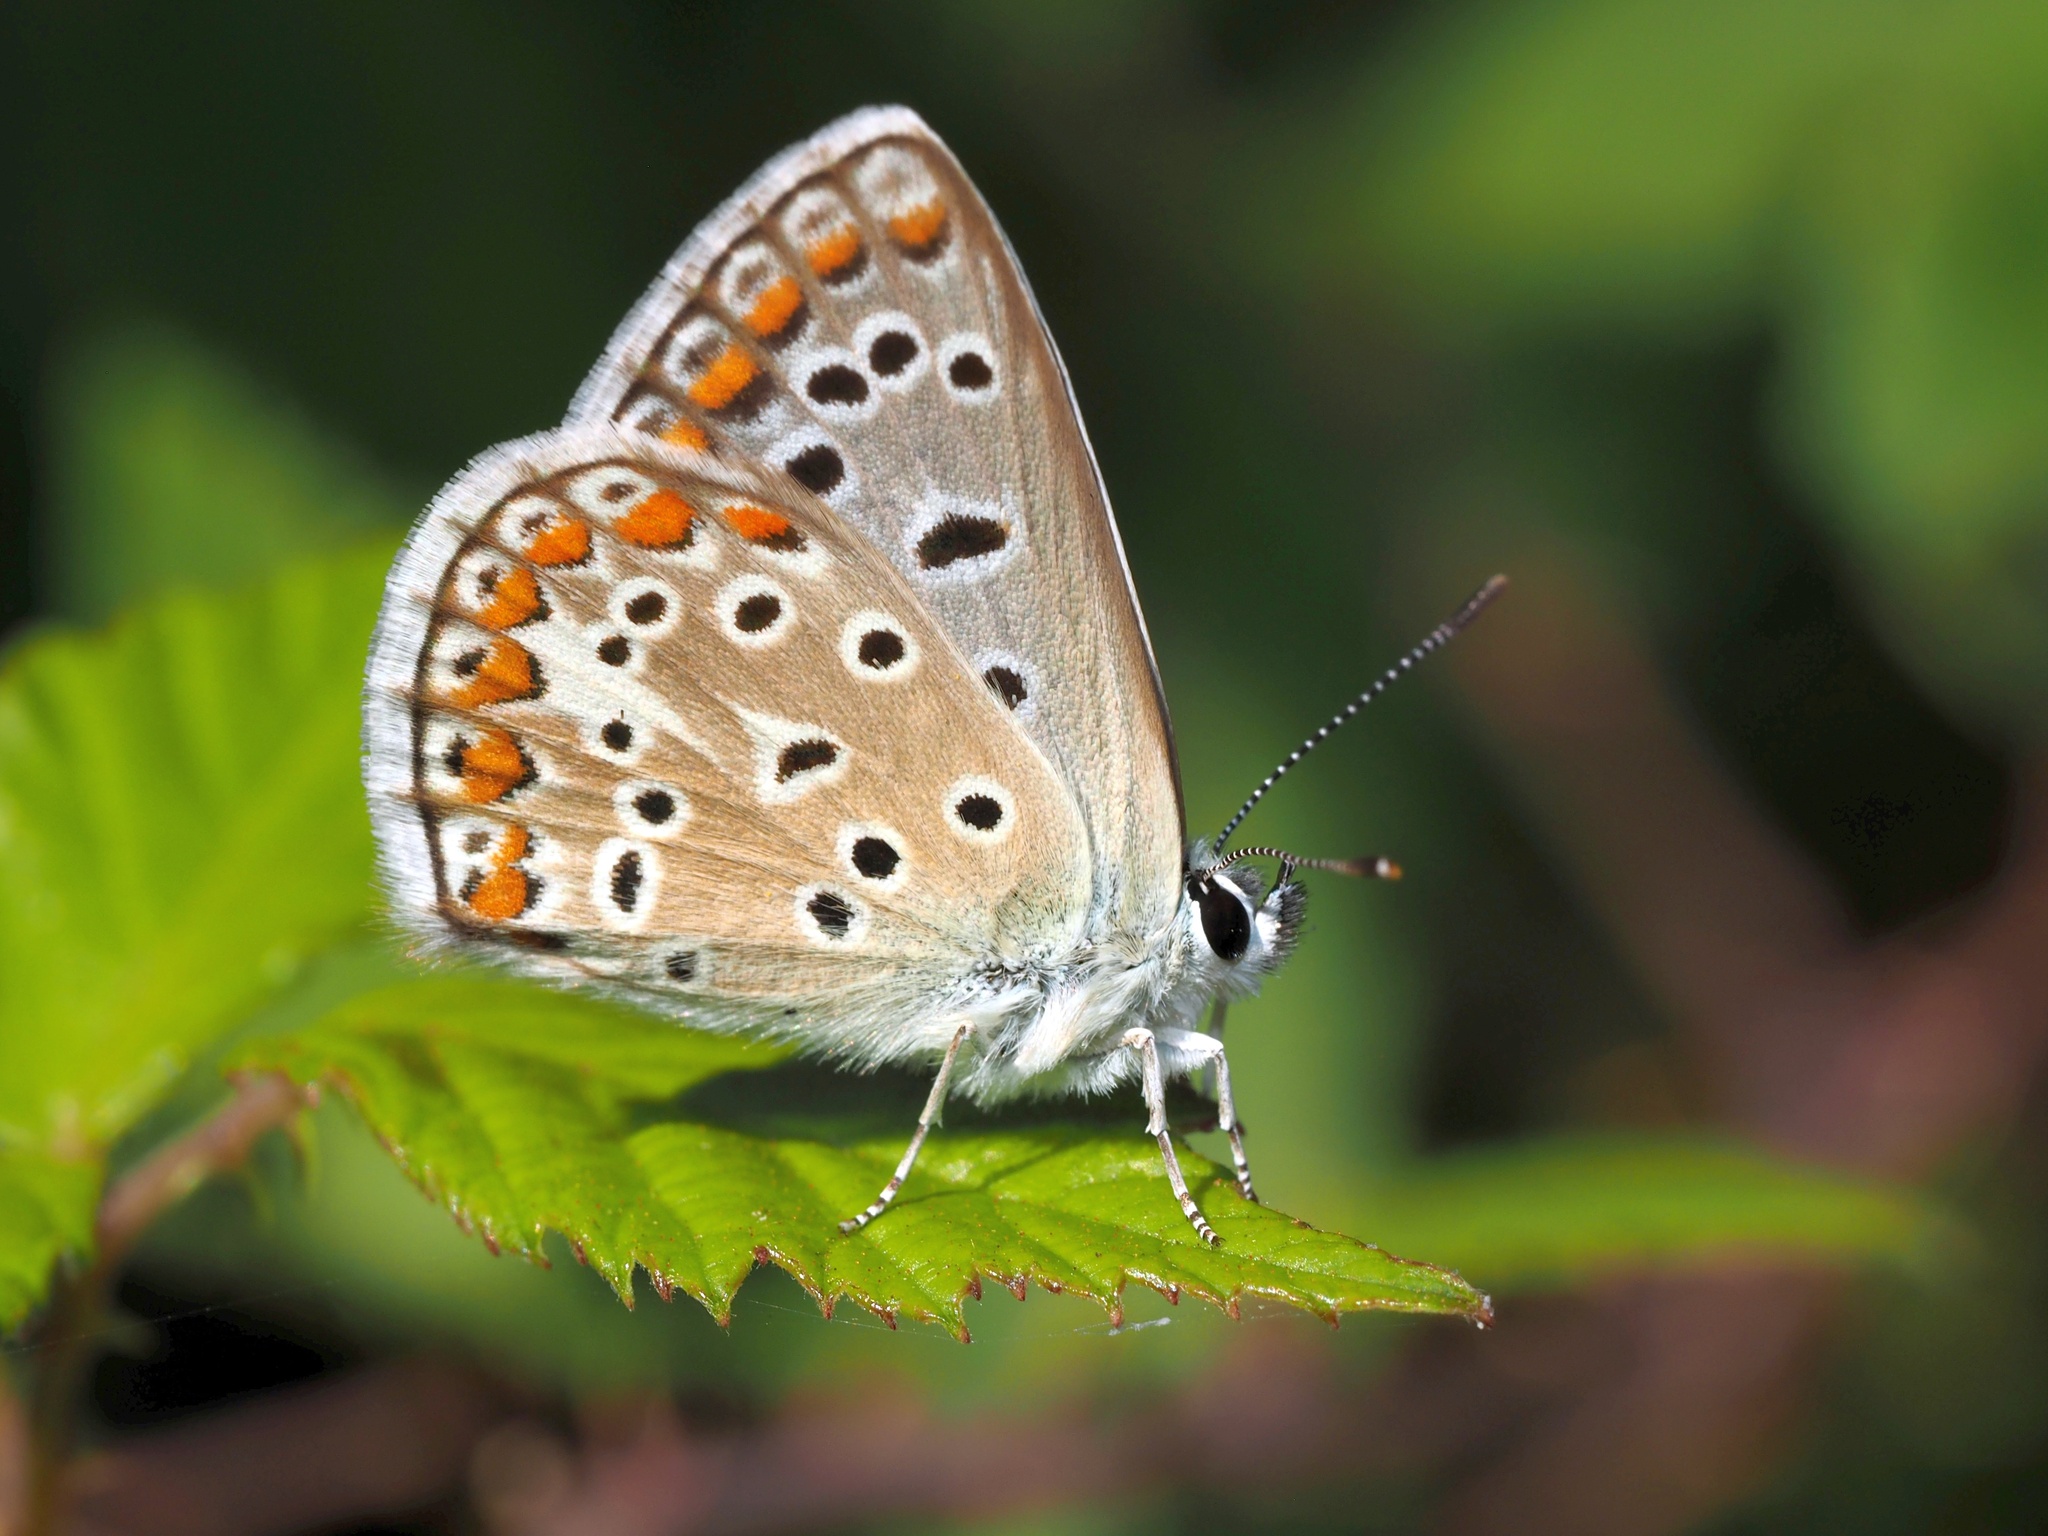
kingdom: Animalia
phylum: Arthropoda
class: Insecta
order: Lepidoptera
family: Lycaenidae
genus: Polyommatus
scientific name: Polyommatus celina
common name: Austaut's blue
